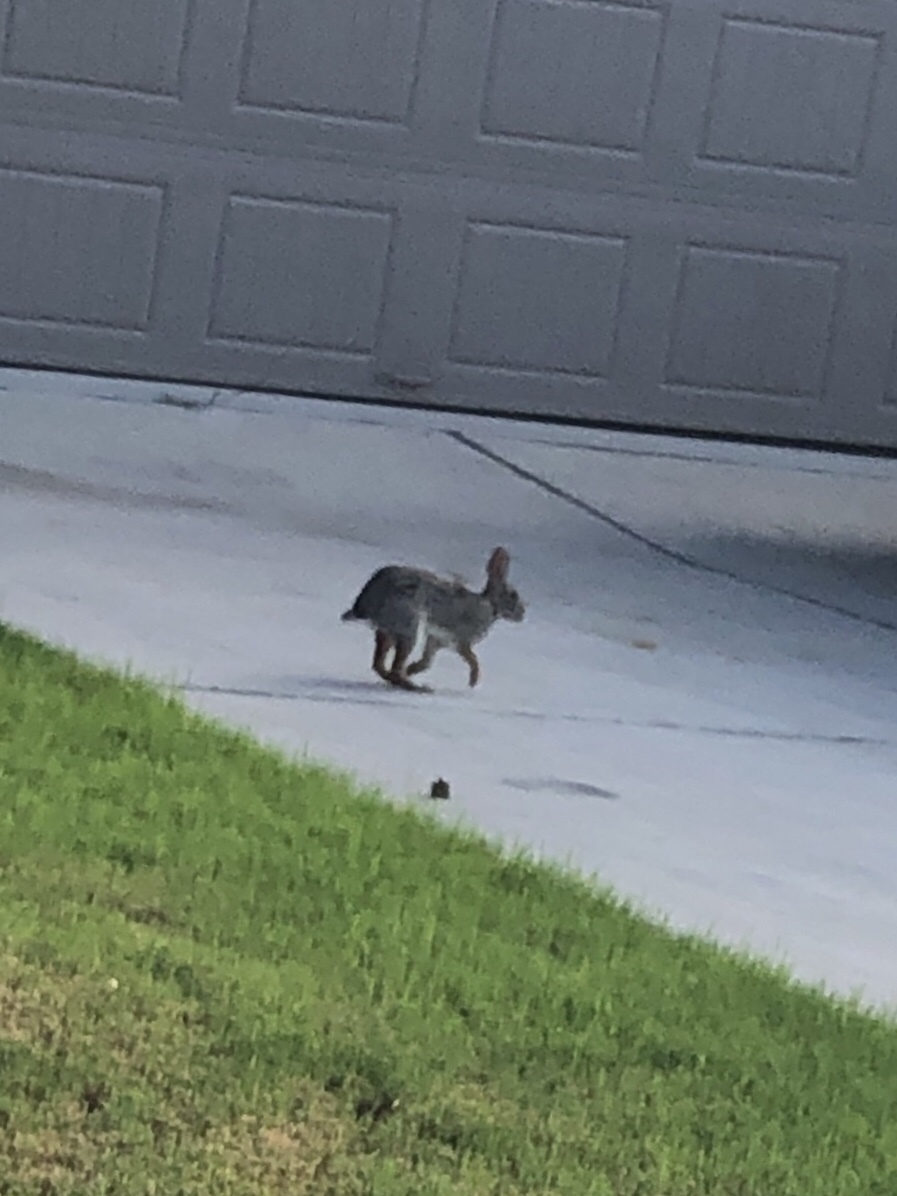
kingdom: Animalia
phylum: Chordata
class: Mammalia
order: Lagomorpha
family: Leporidae
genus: Sylvilagus
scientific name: Sylvilagus floridanus
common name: Eastern cottontail
